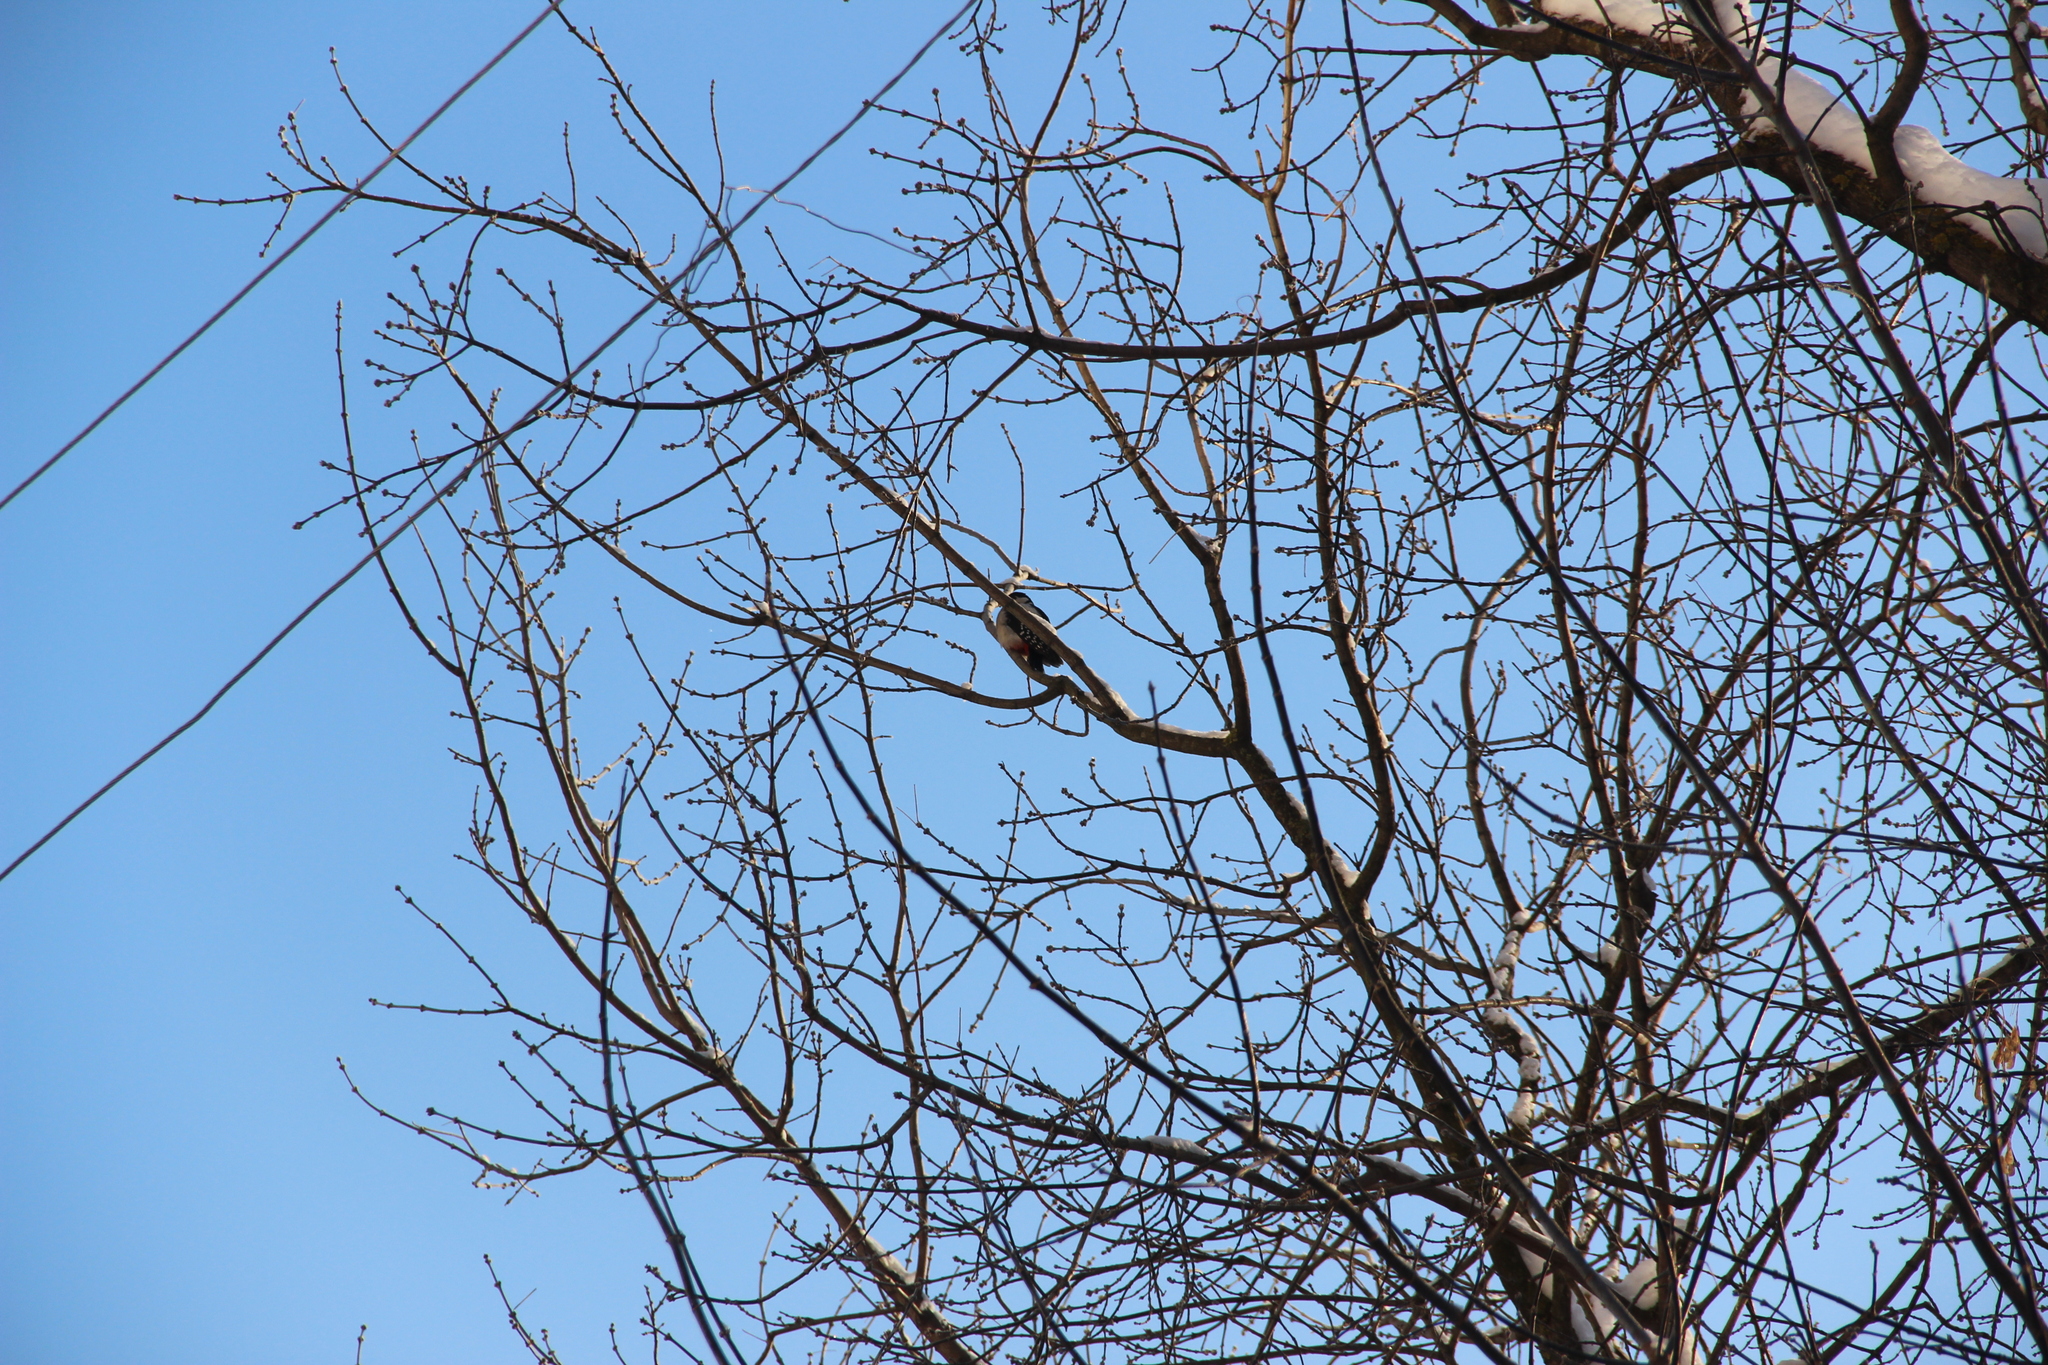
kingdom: Animalia
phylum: Chordata
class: Aves
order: Piciformes
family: Picidae
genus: Dendrocopos
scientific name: Dendrocopos major
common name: Great spotted woodpecker
